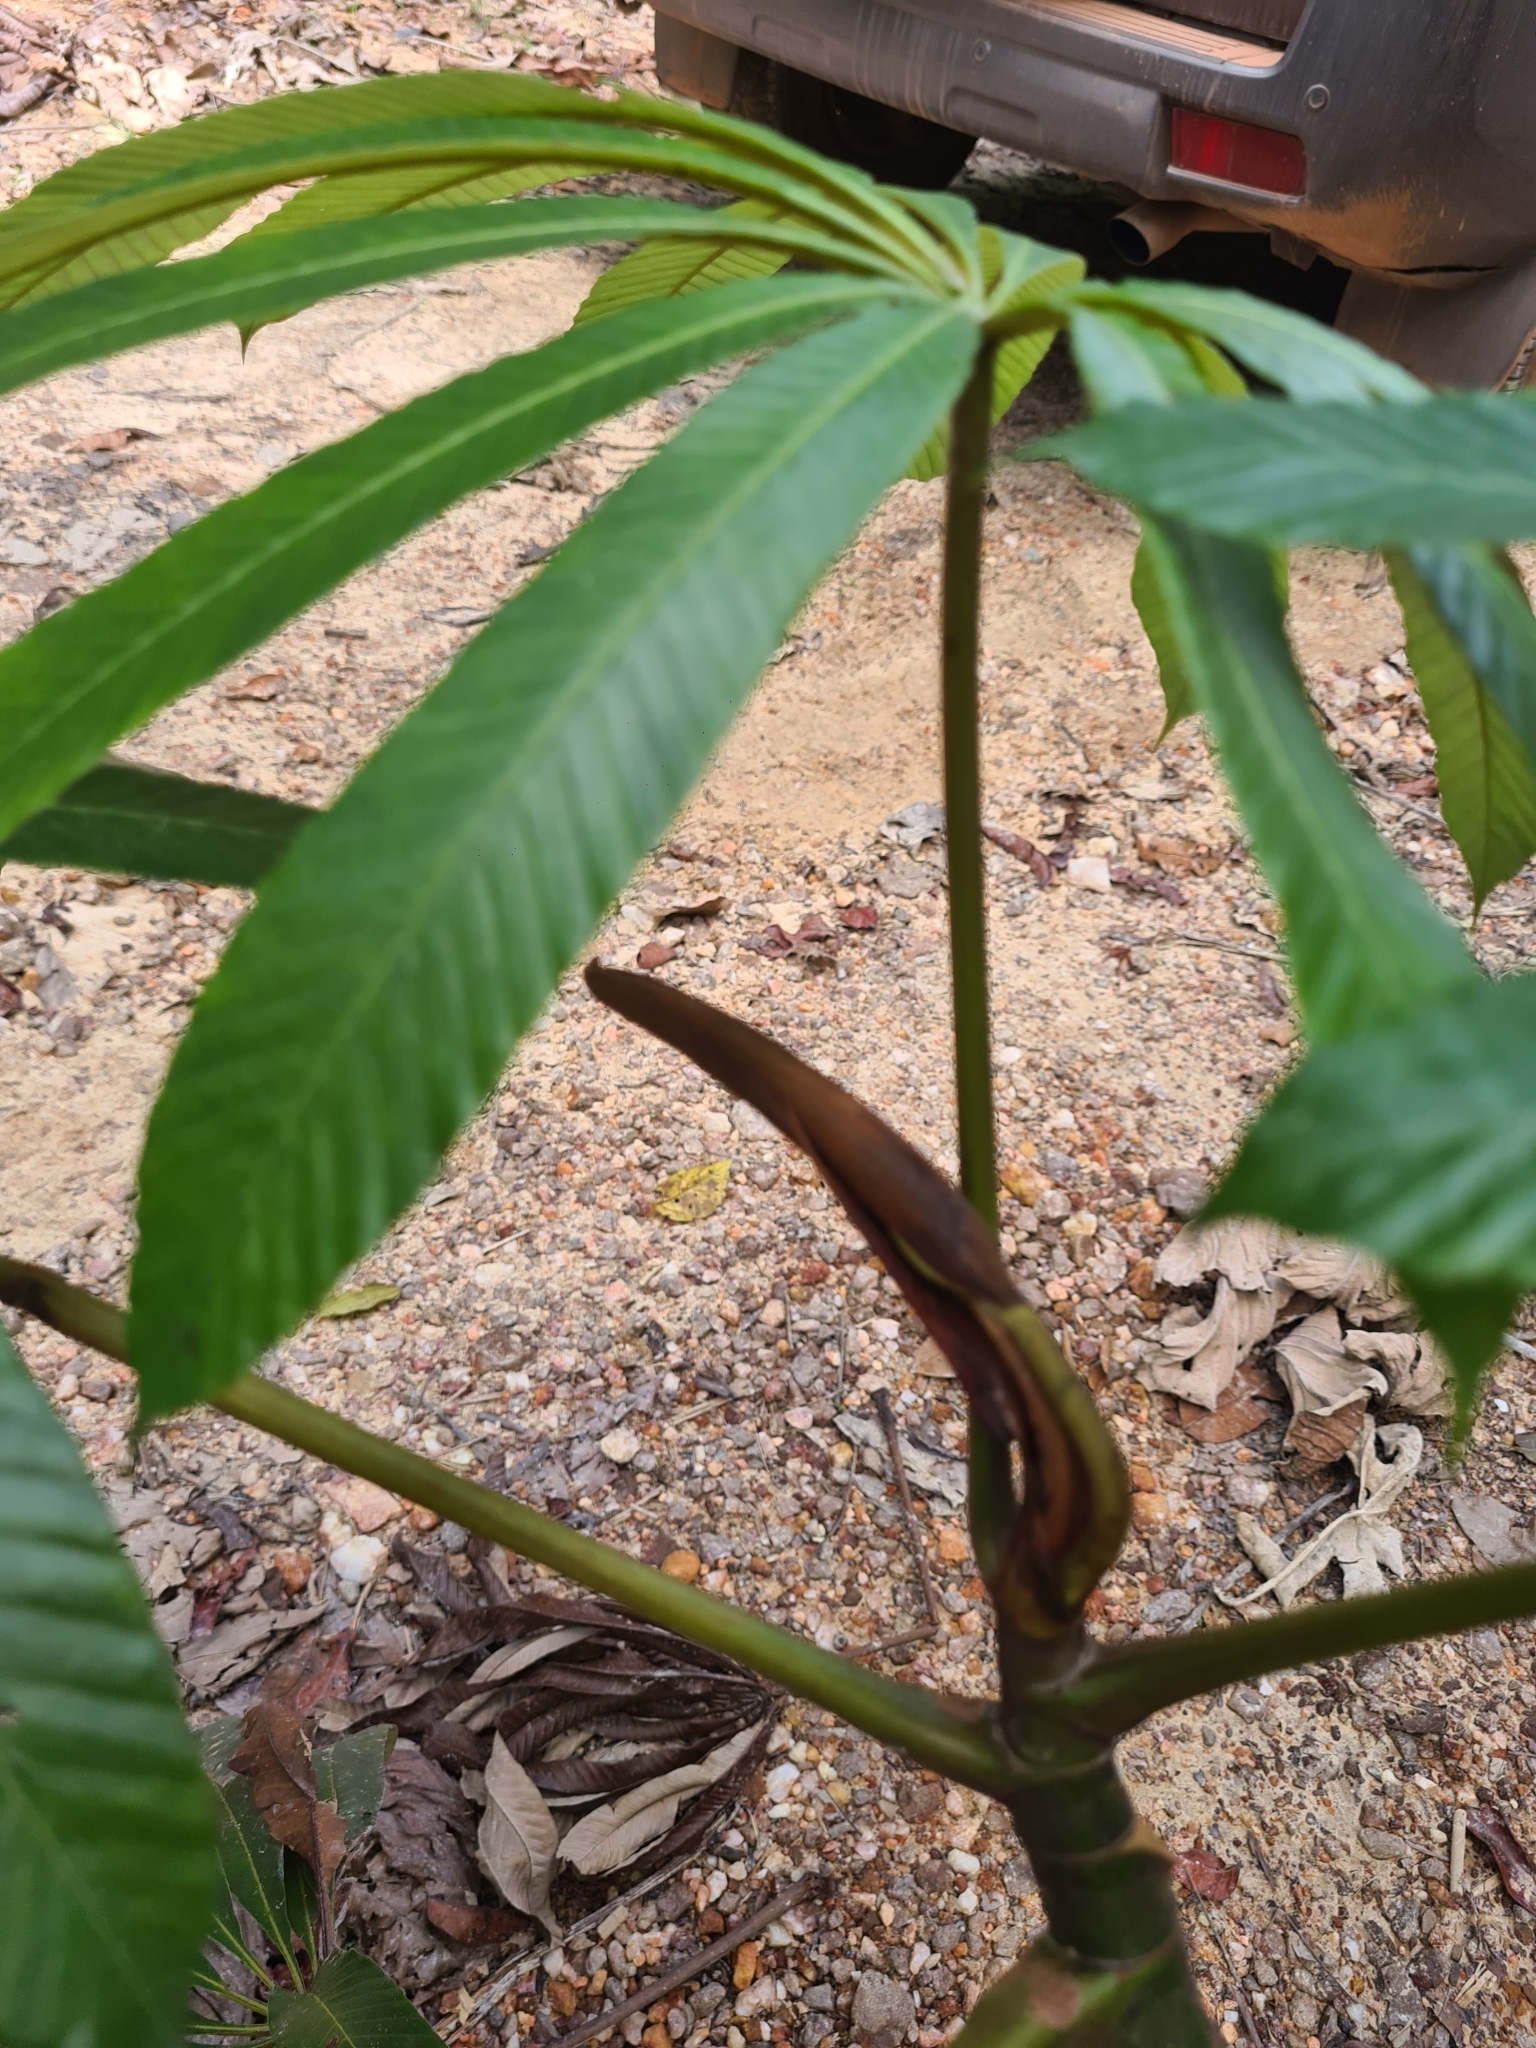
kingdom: Plantae
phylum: Tracheophyta
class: Magnoliopsida
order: Rosales
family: Urticaceae
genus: Cecropia
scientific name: Cecropia sciadophylla
